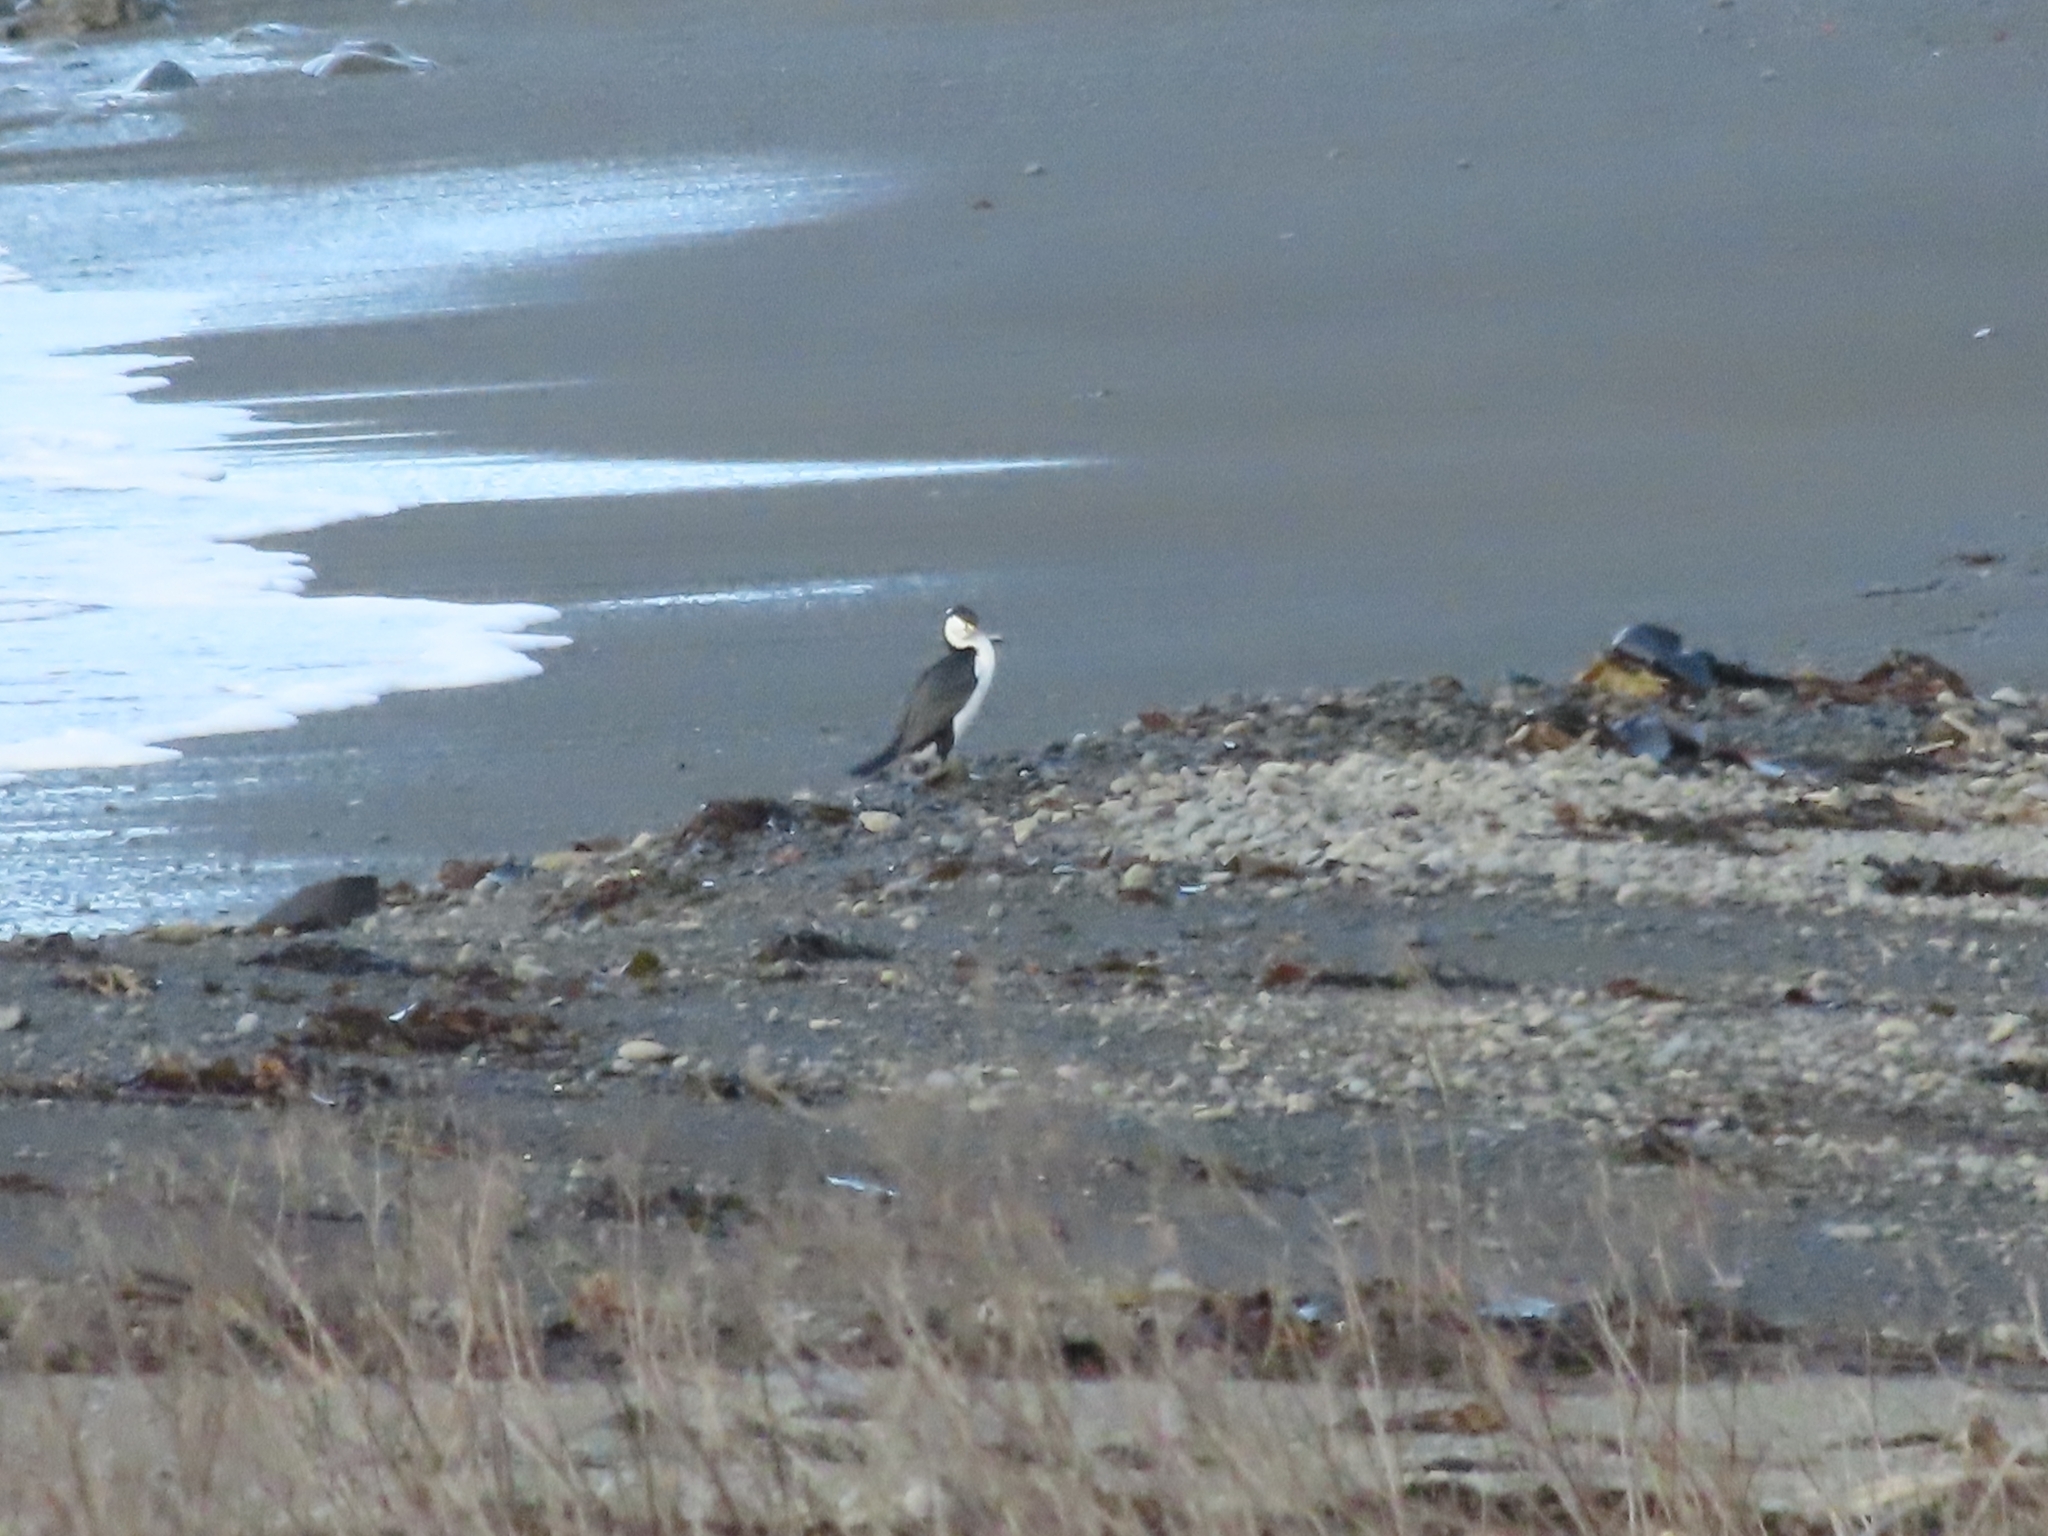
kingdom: Animalia
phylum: Chordata
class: Aves
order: Suliformes
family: Phalacrocoracidae
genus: Phalacrocorax
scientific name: Phalacrocorax varius
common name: Pied cormorant
